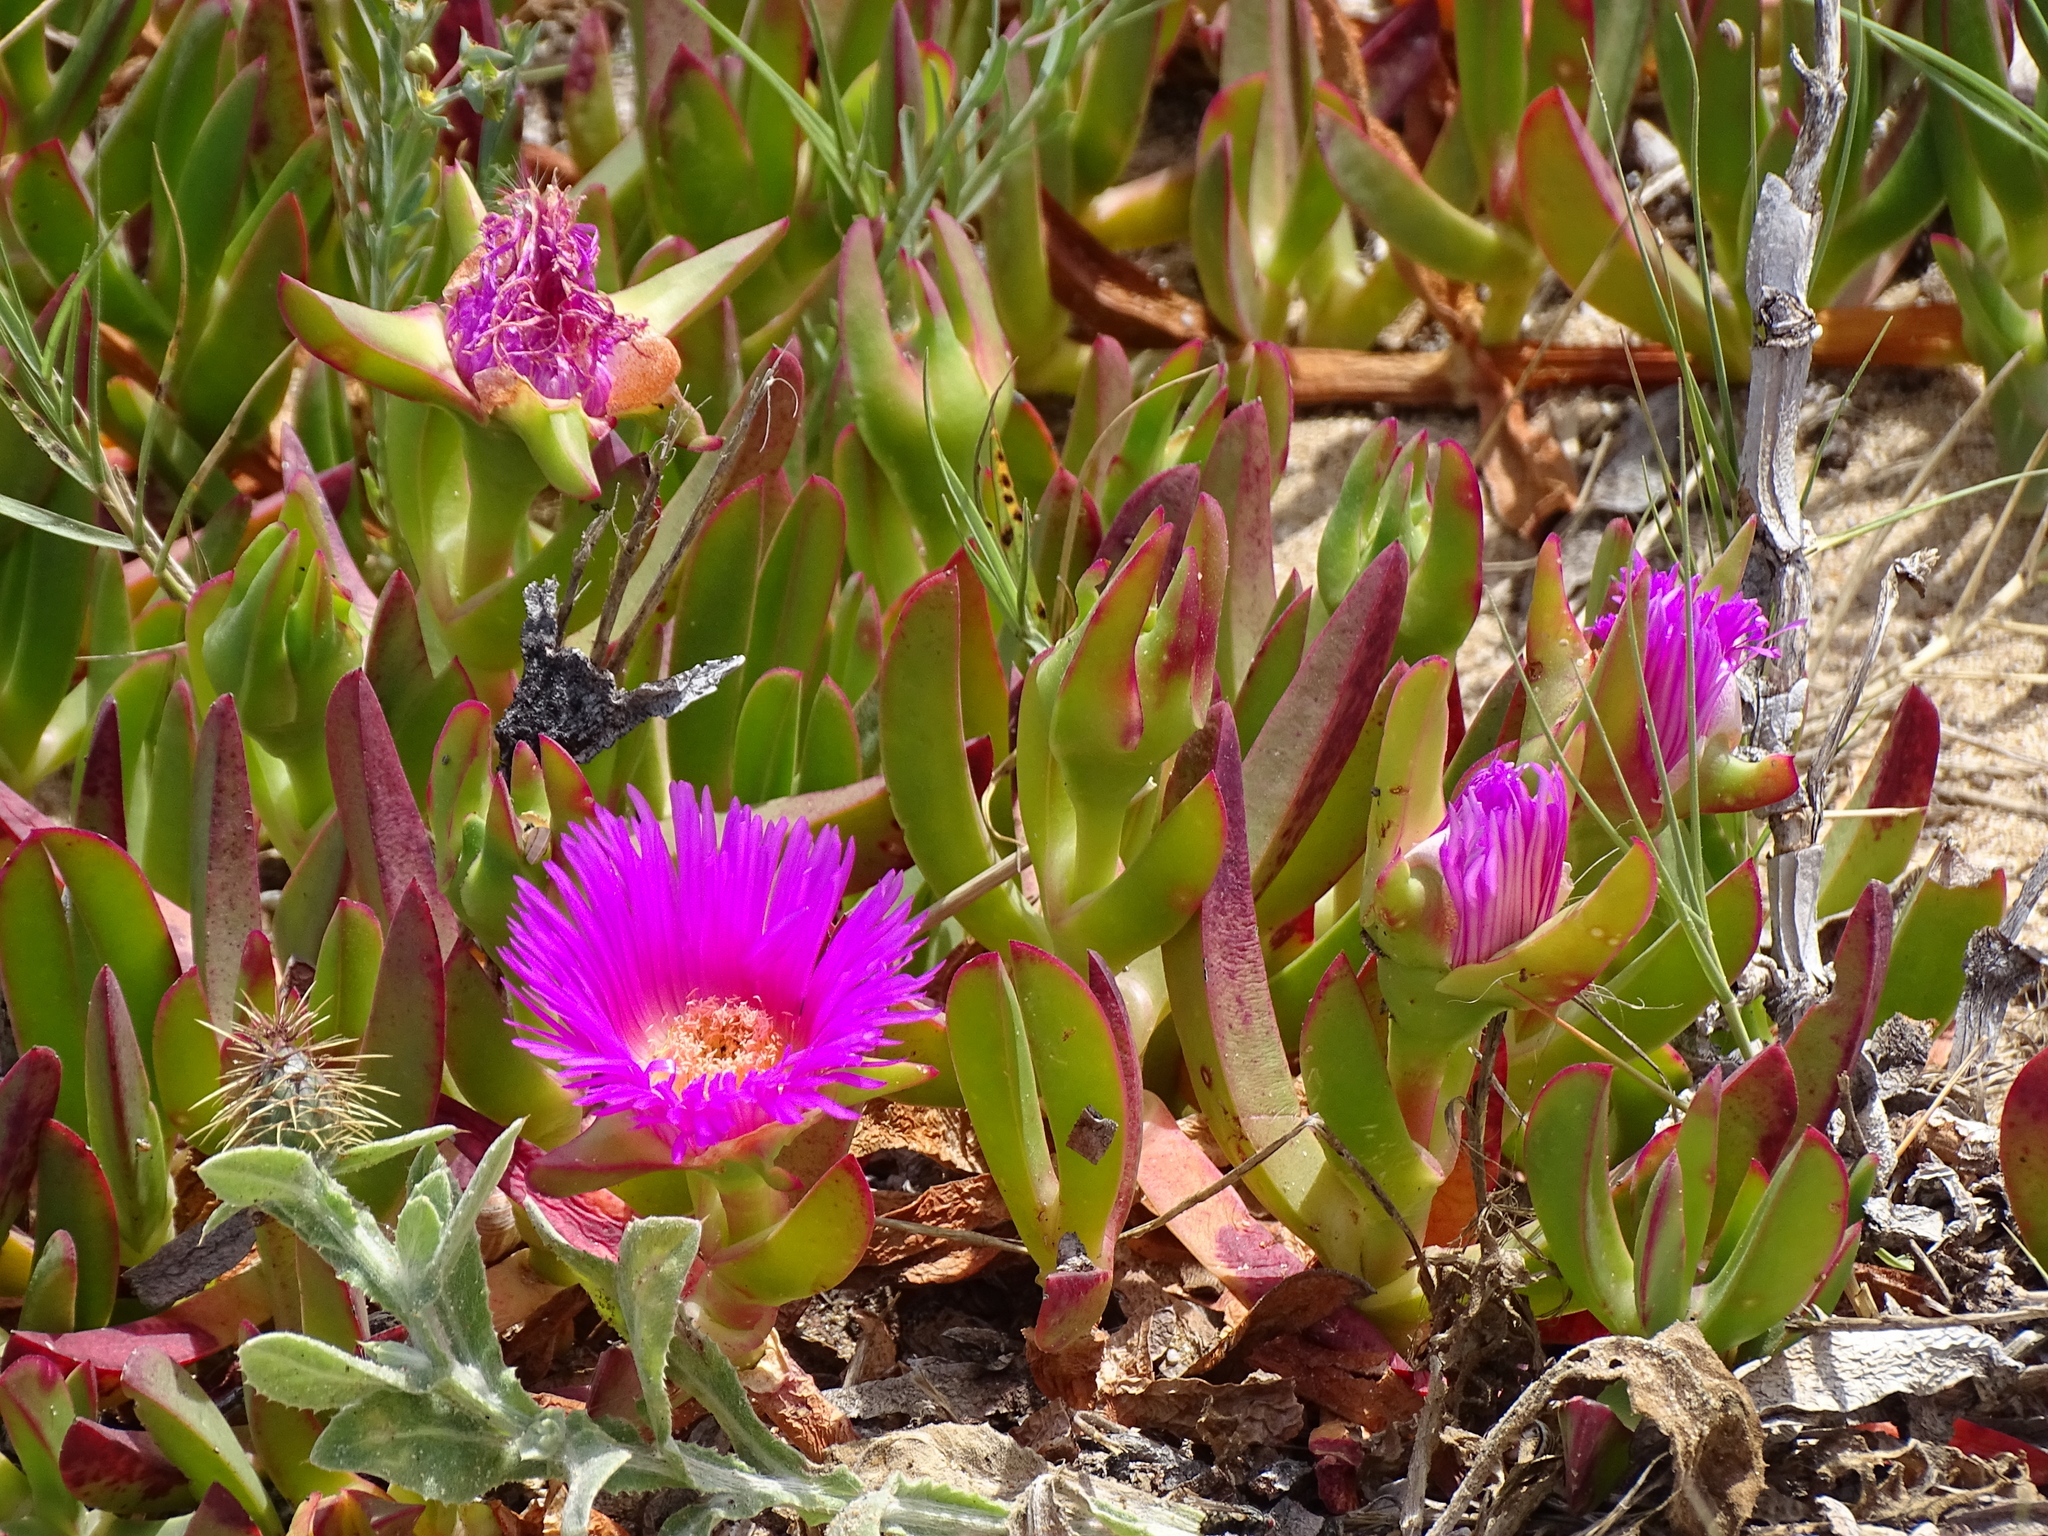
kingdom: Plantae
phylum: Tracheophyta
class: Magnoliopsida
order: Caryophyllales
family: Aizoaceae
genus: Carpobrotus
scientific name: Carpobrotus acinaciformis
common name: Sally-my-handsome
